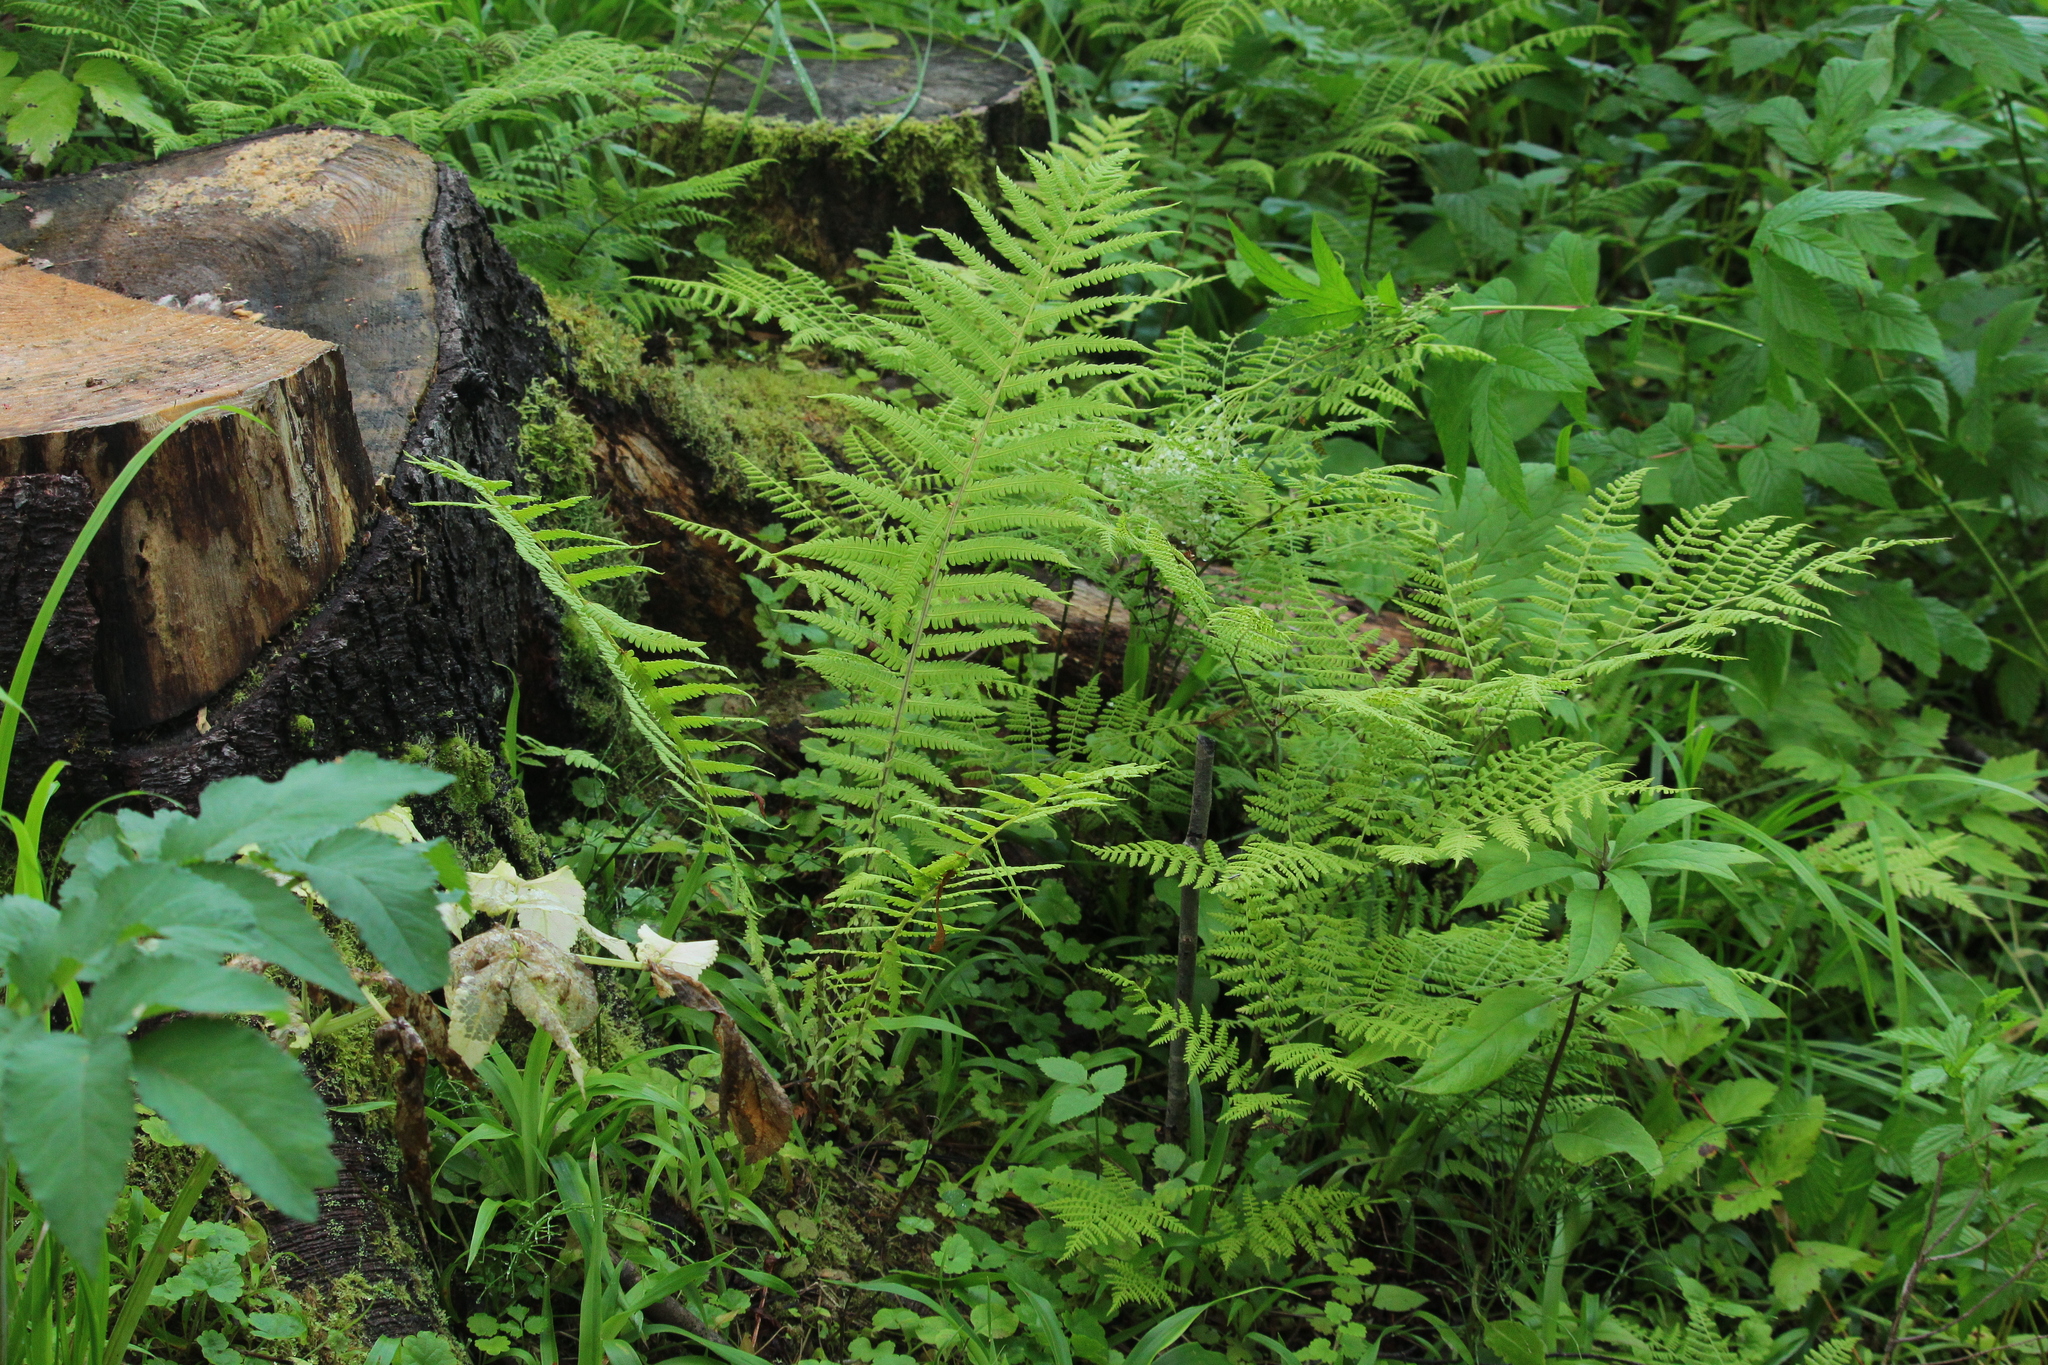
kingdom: Plantae
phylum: Tracheophyta
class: Polypodiopsida
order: Polypodiales
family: Athyriaceae
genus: Diplazium
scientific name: Diplazium sibiricum
